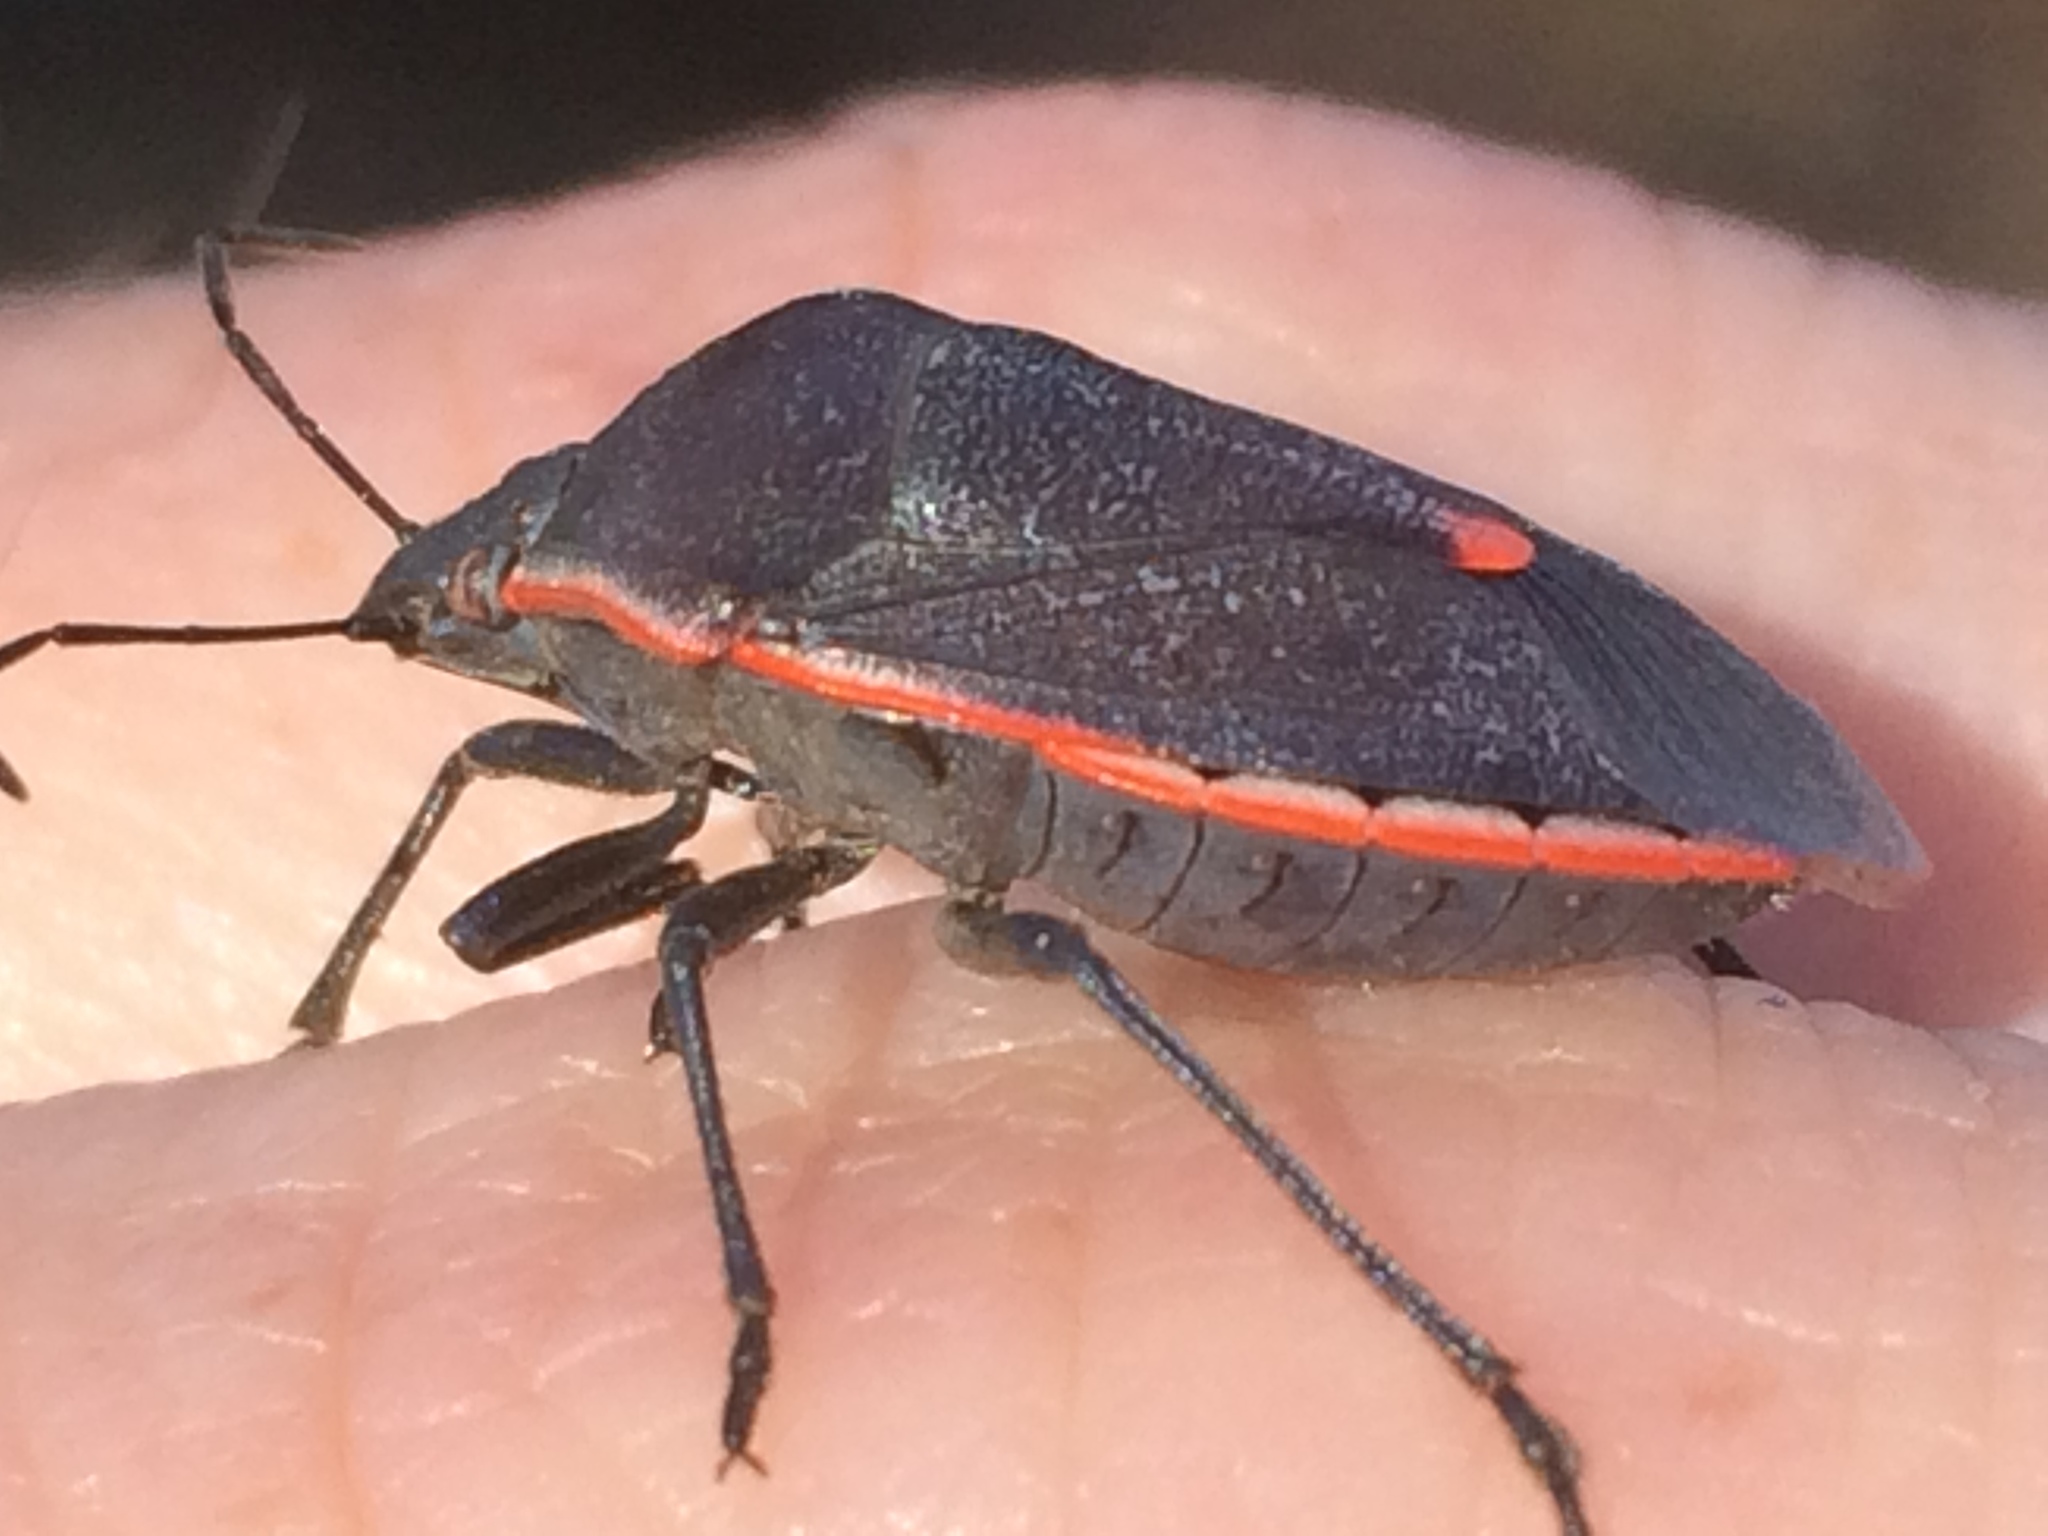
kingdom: Animalia
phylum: Arthropoda
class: Insecta
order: Hemiptera
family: Pentatomidae
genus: Chlorochroa
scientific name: Chlorochroa ligata
